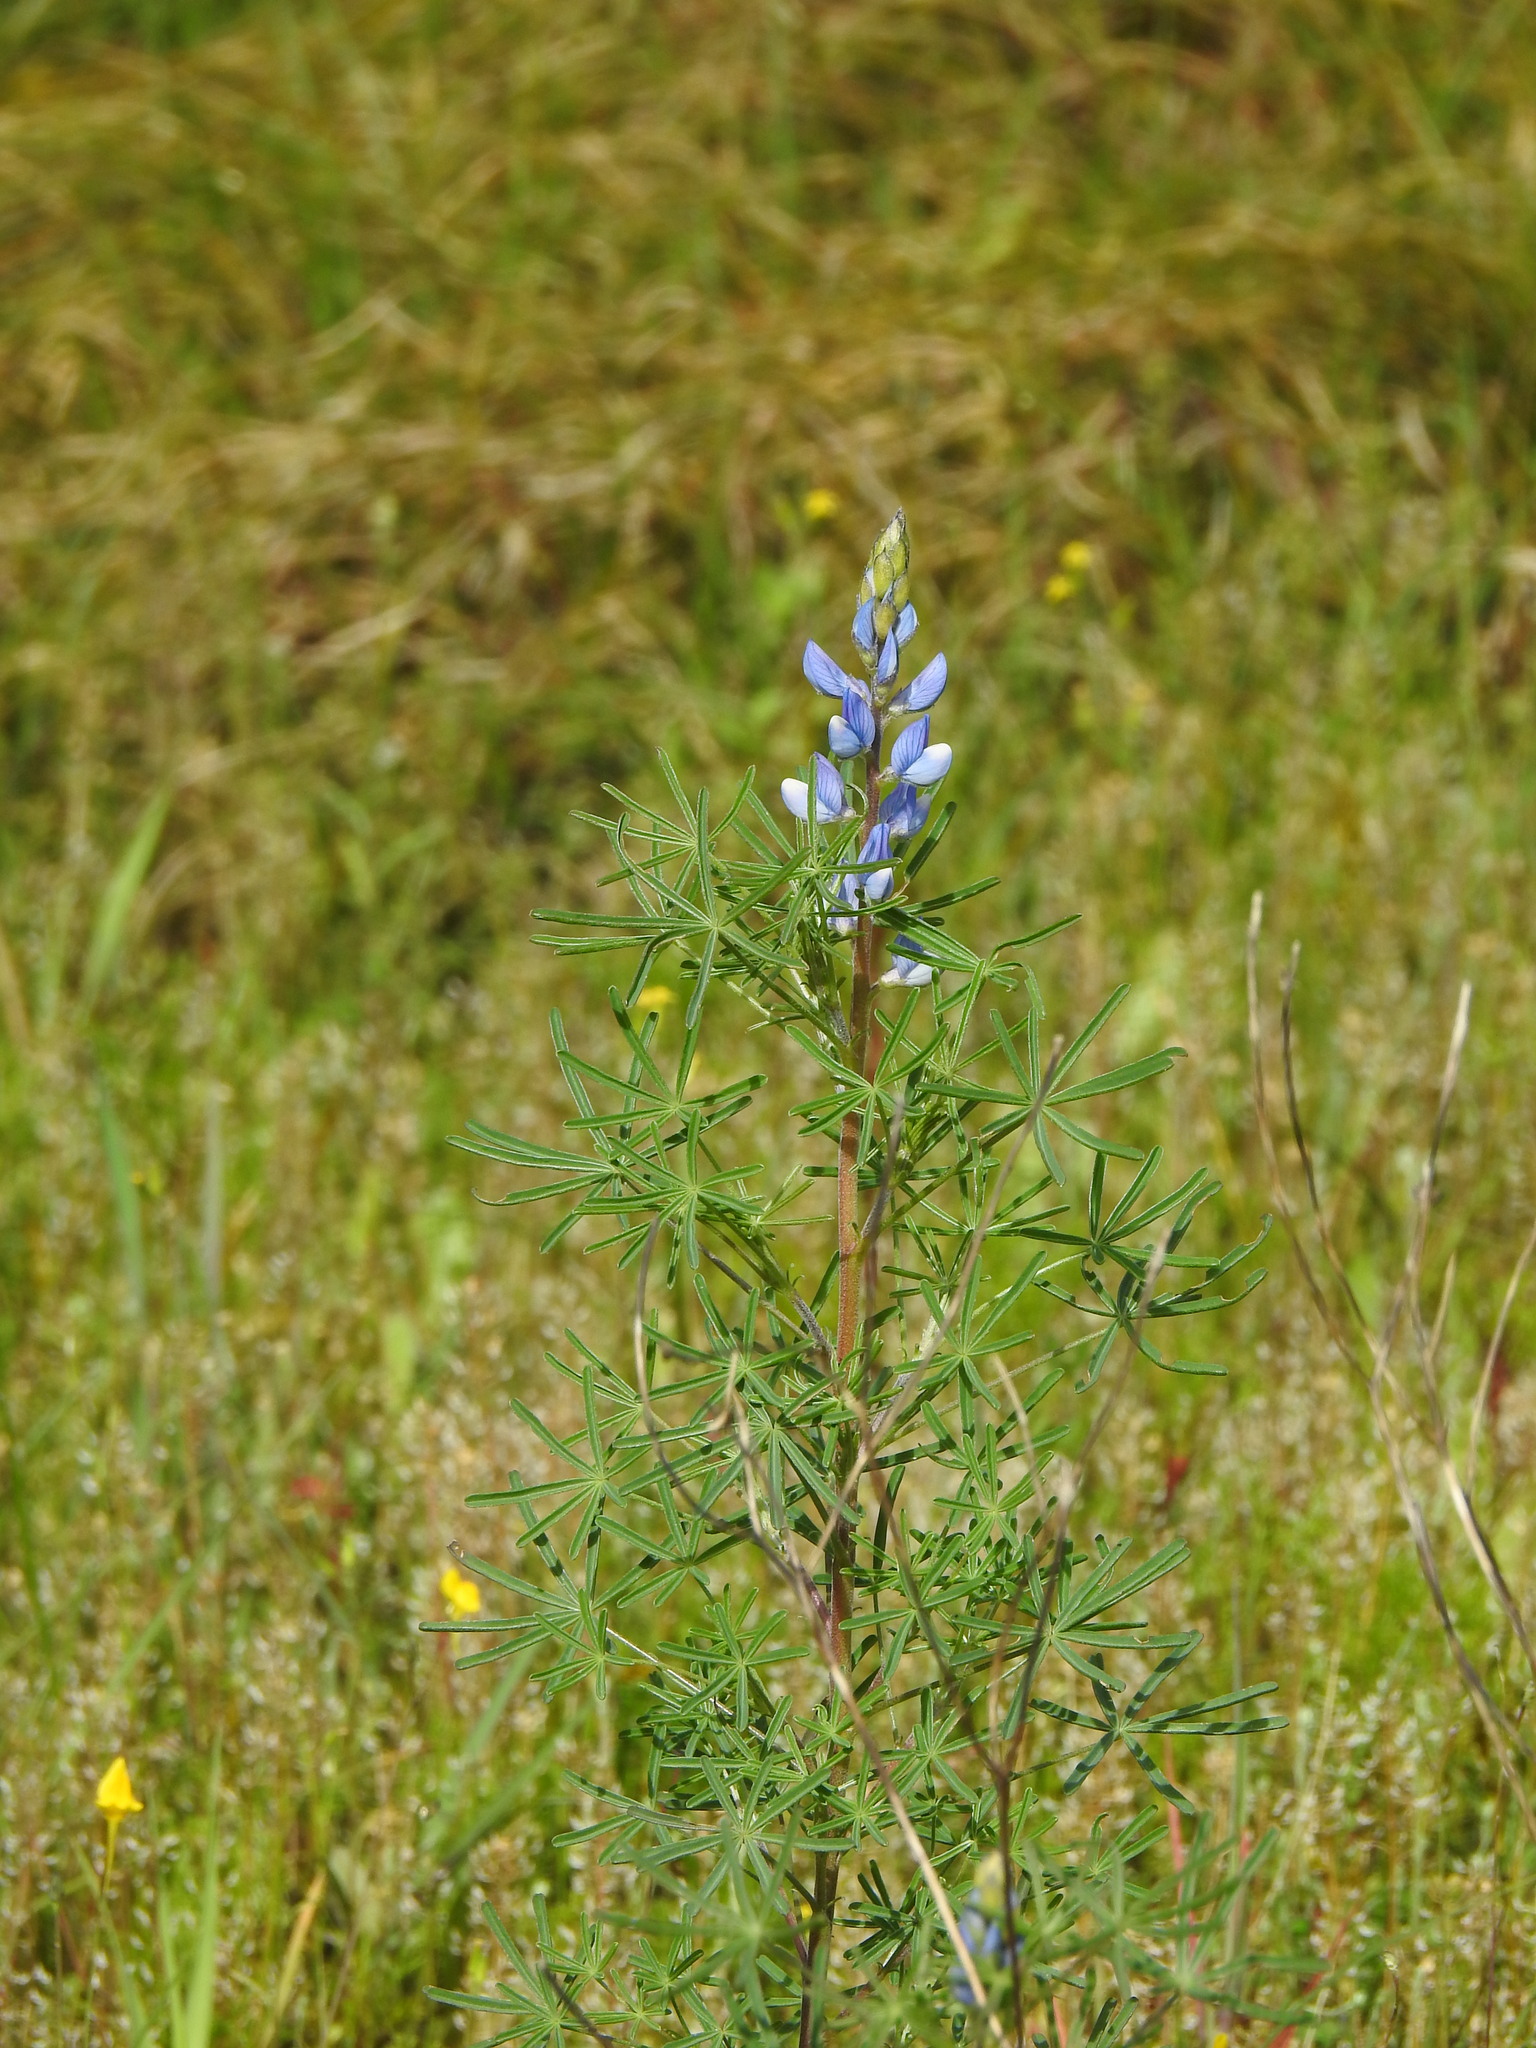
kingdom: Plantae
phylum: Tracheophyta
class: Magnoliopsida
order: Fabales
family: Fabaceae
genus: Lupinus
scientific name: Lupinus angustifolius
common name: Narrow-leaved lupin
